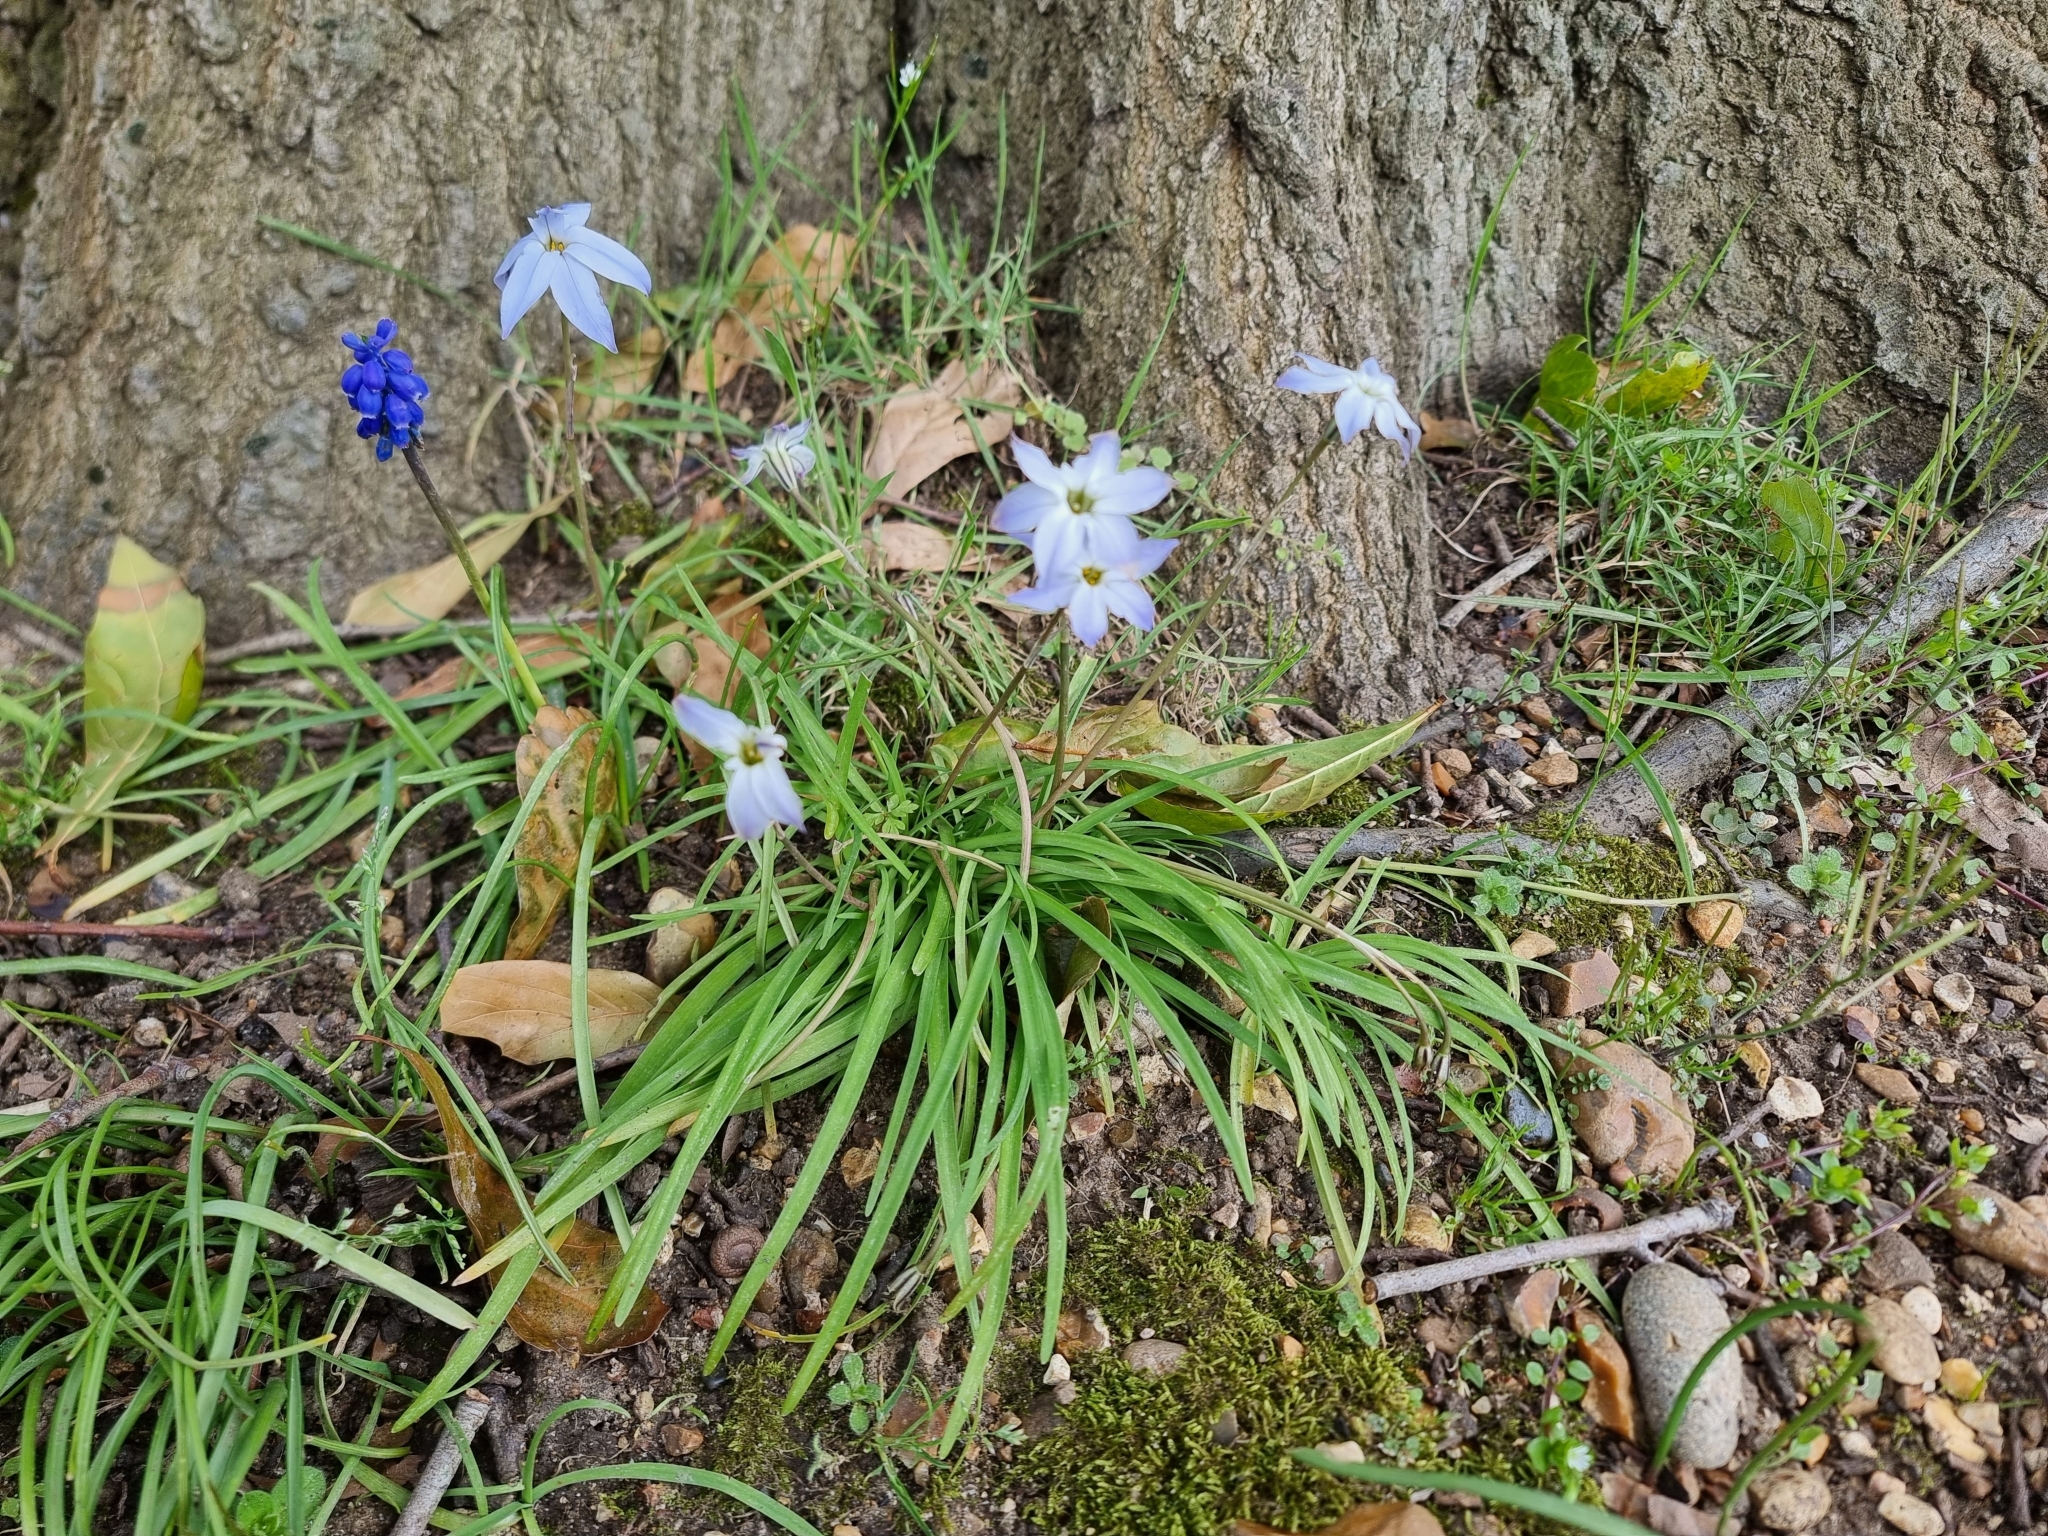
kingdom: Plantae
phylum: Tracheophyta
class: Liliopsida
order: Asparagales
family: Amaryllidaceae
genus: Ipheion
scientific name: Ipheion uniflorum
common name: Spring starflower
